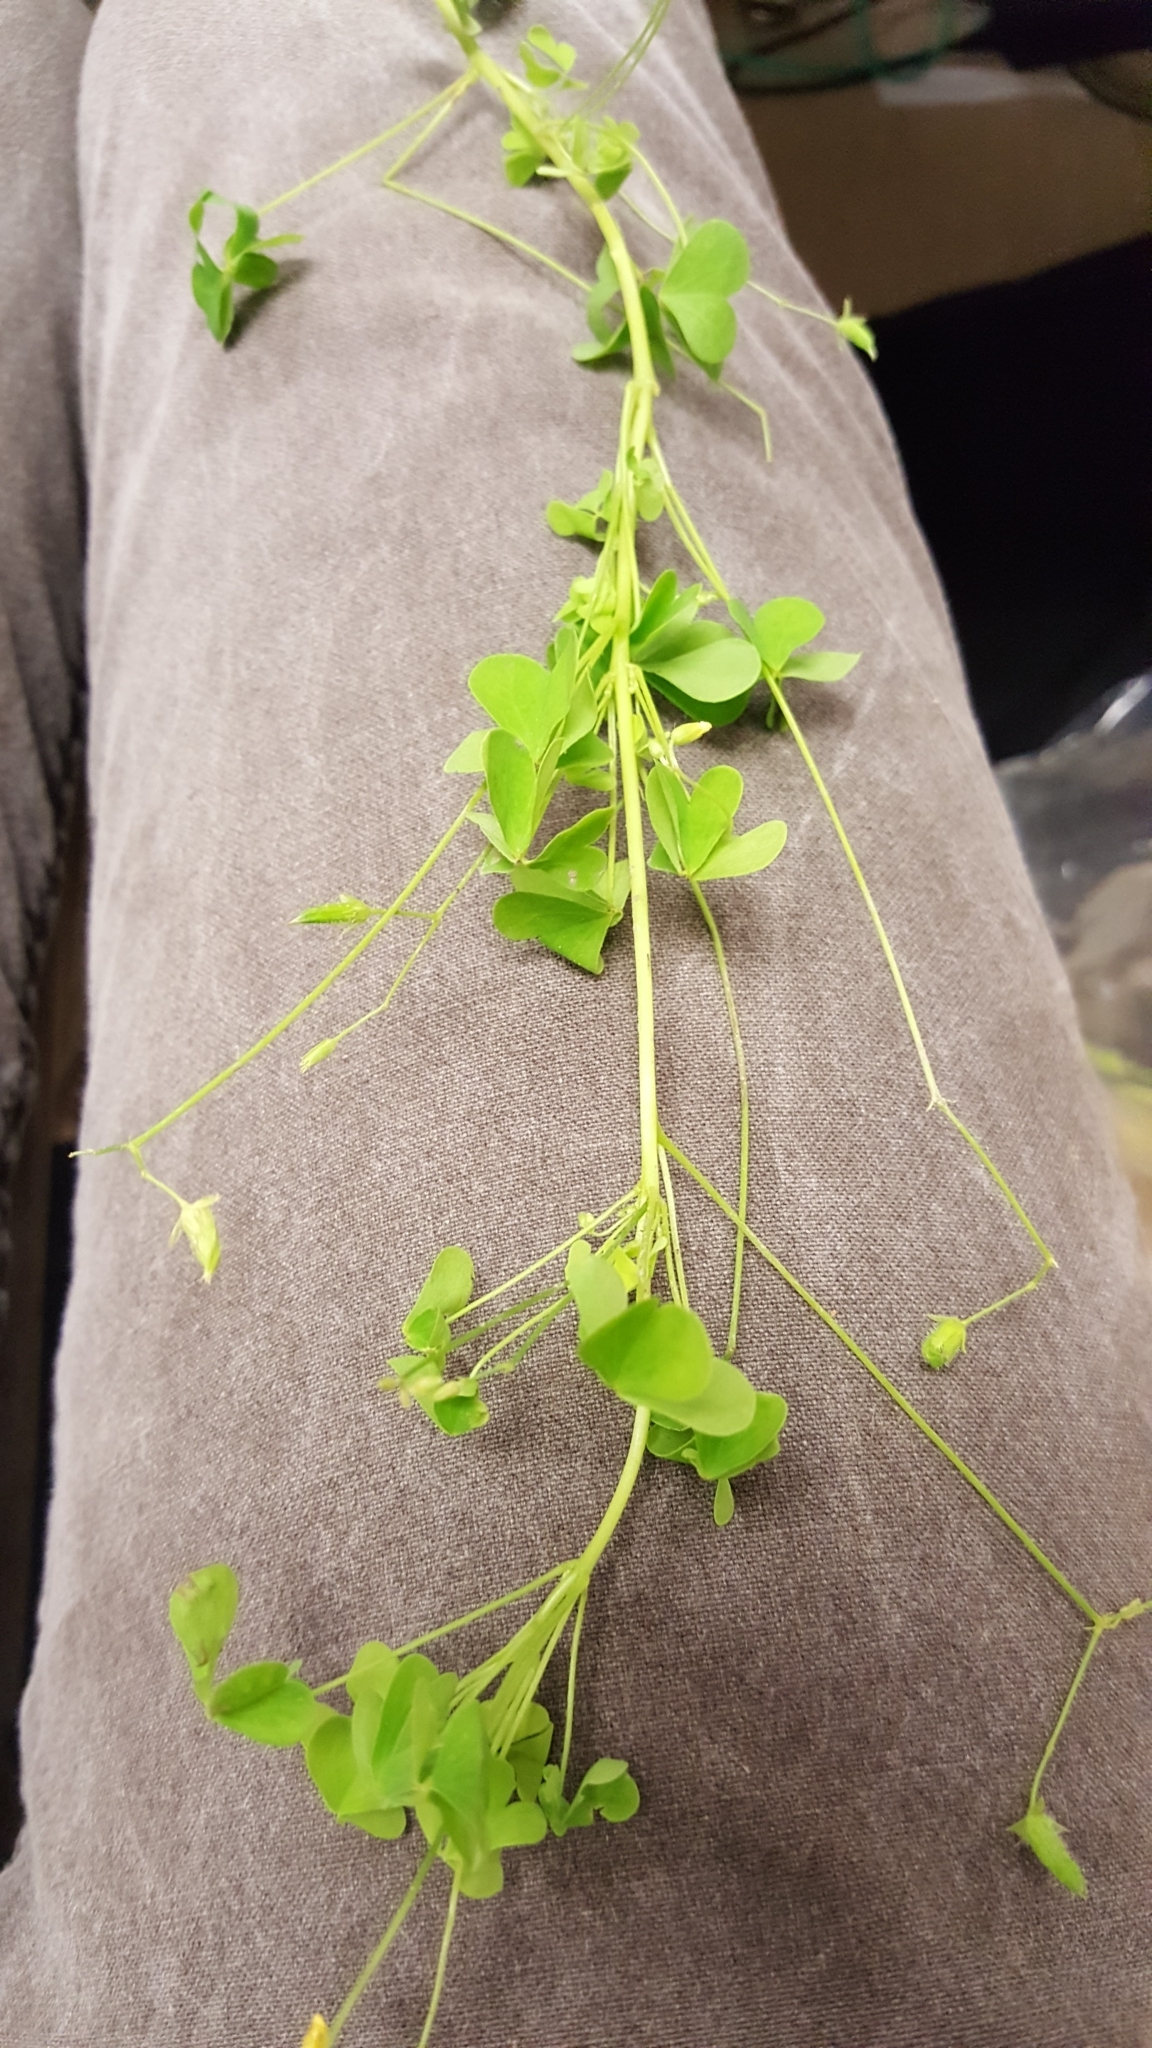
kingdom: Plantae
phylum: Tracheophyta
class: Magnoliopsida
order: Oxalidales
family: Oxalidaceae
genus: Oxalis
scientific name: Oxalis stricta
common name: Upright yellow-sorrel
